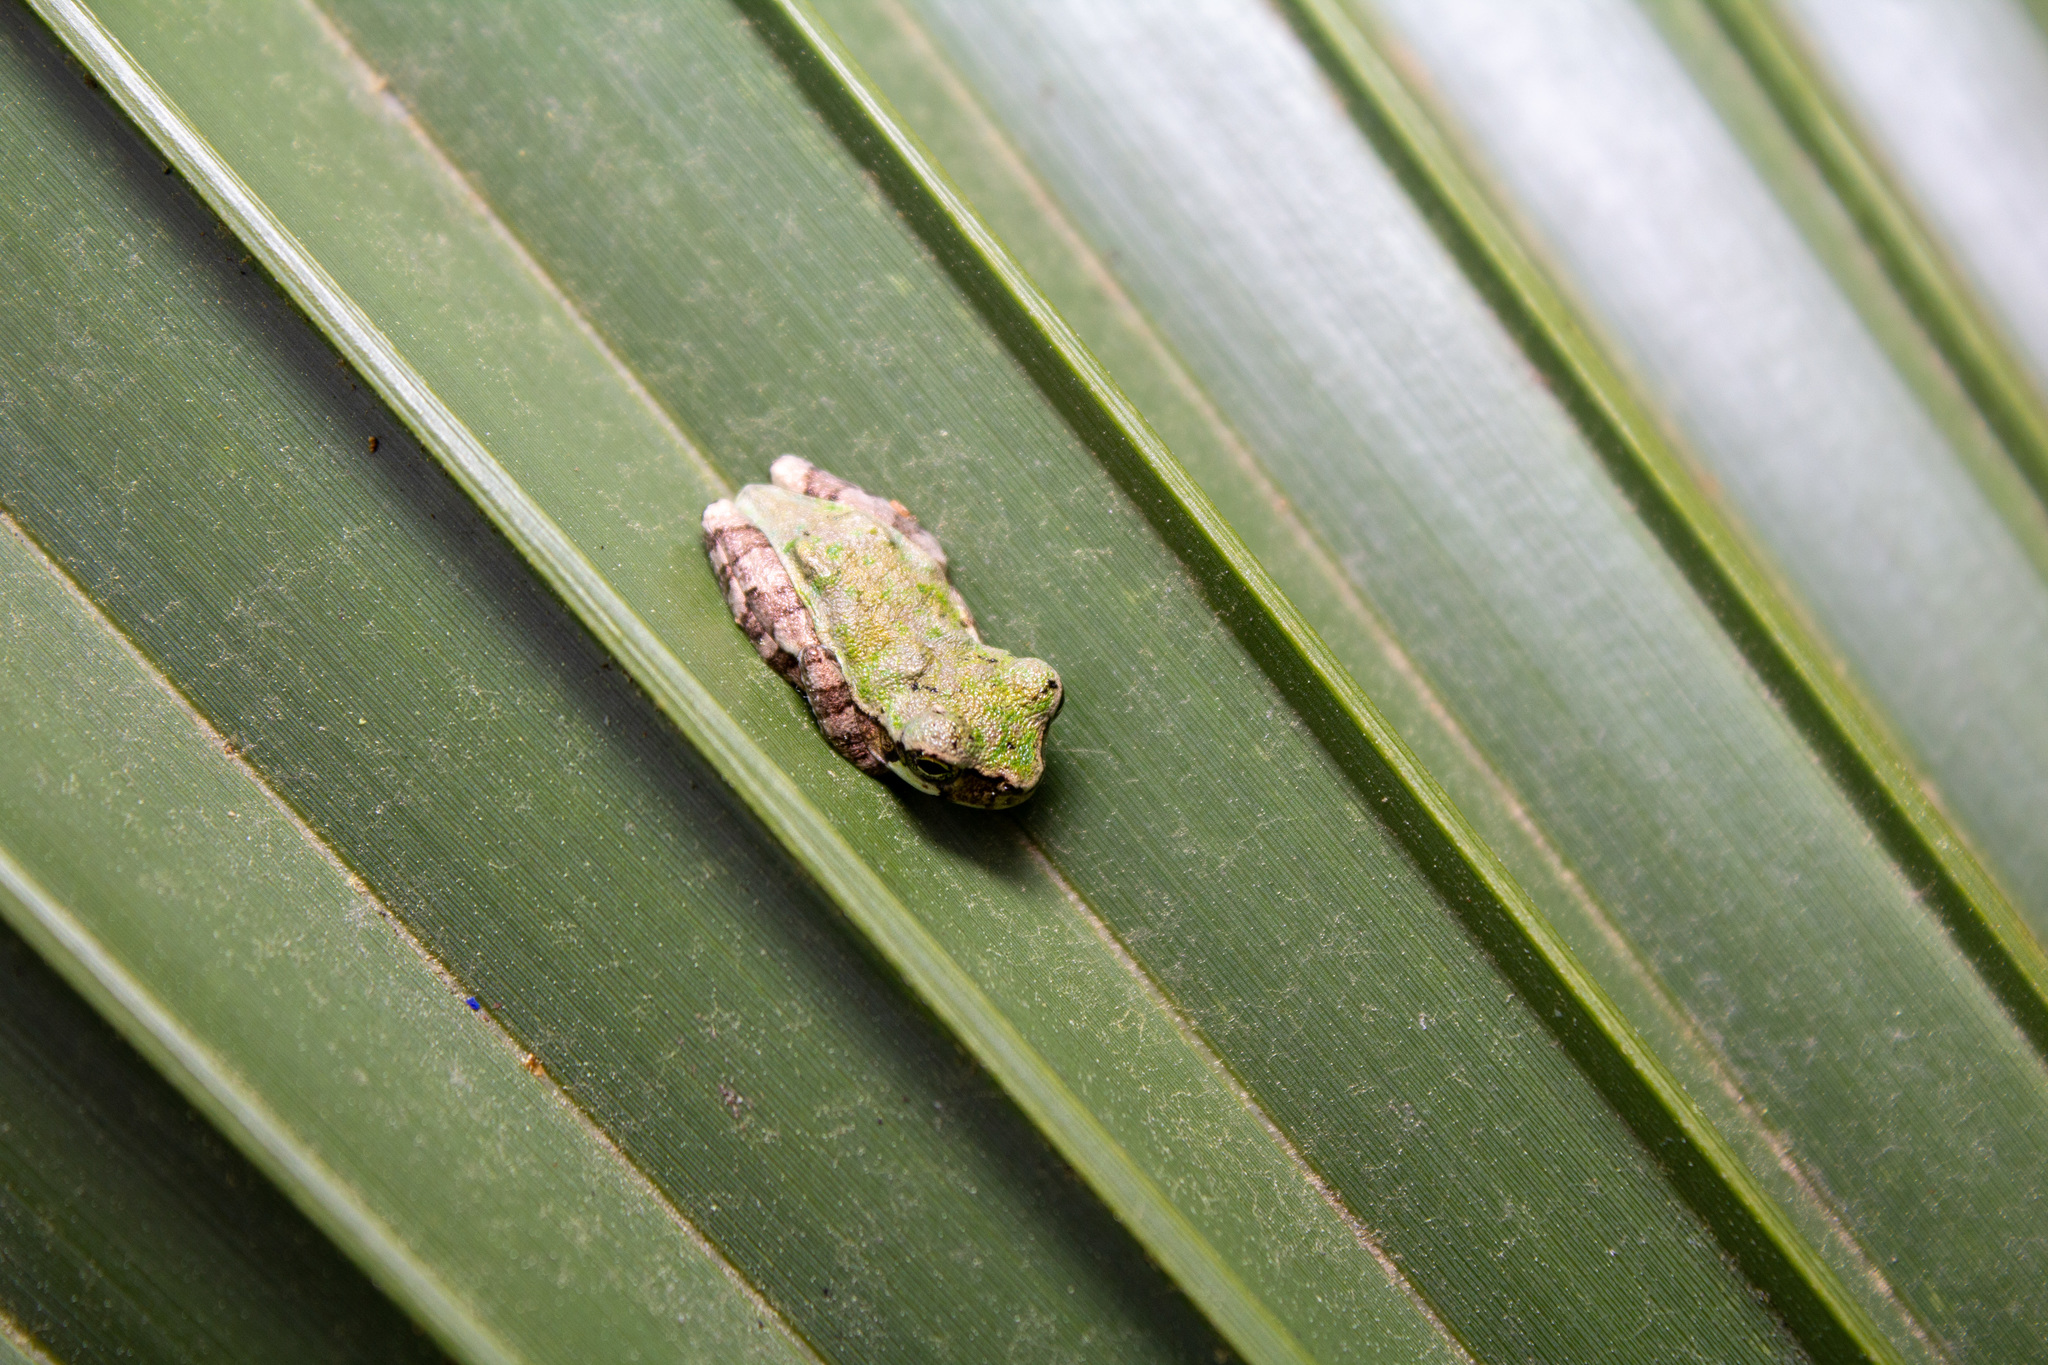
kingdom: Animalia
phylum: Chordata
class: Amphibia
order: Anura
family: Hylidae
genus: Dryophytes
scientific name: Dryophytes avivoca
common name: Bird-voiced treefrog
